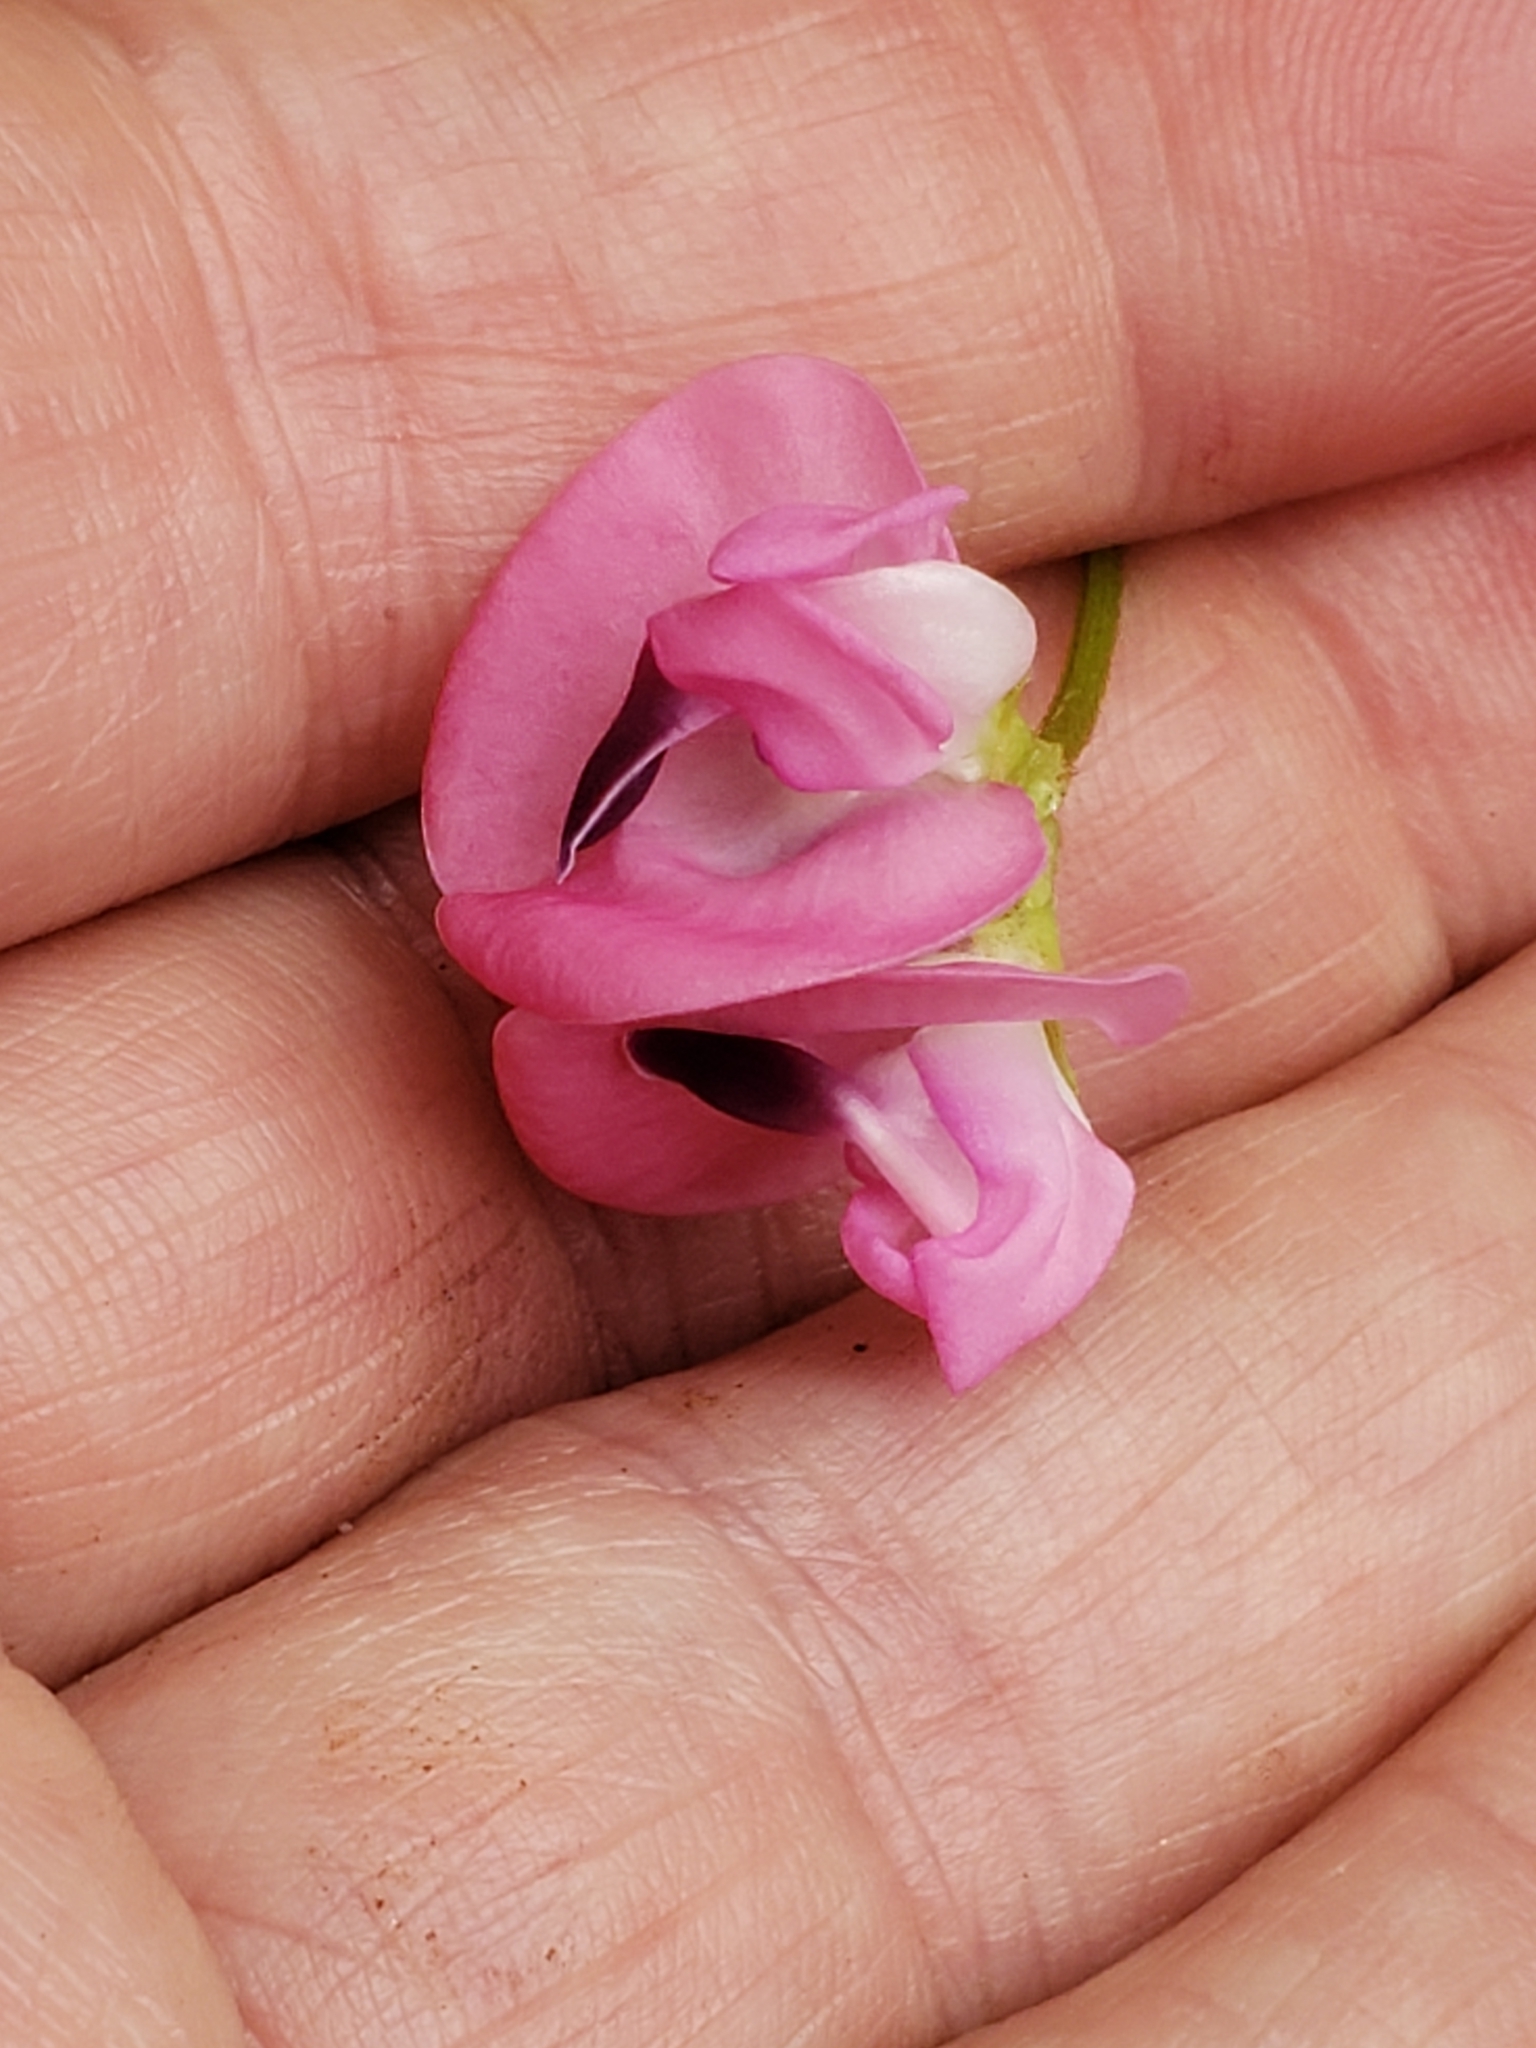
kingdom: Plantae
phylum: Tracheophyta
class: Magnoliopsida
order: Fabales
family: Fabaceae
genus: Strophostyles
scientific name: Strophostyles umbellata
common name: Perennial wild bean
